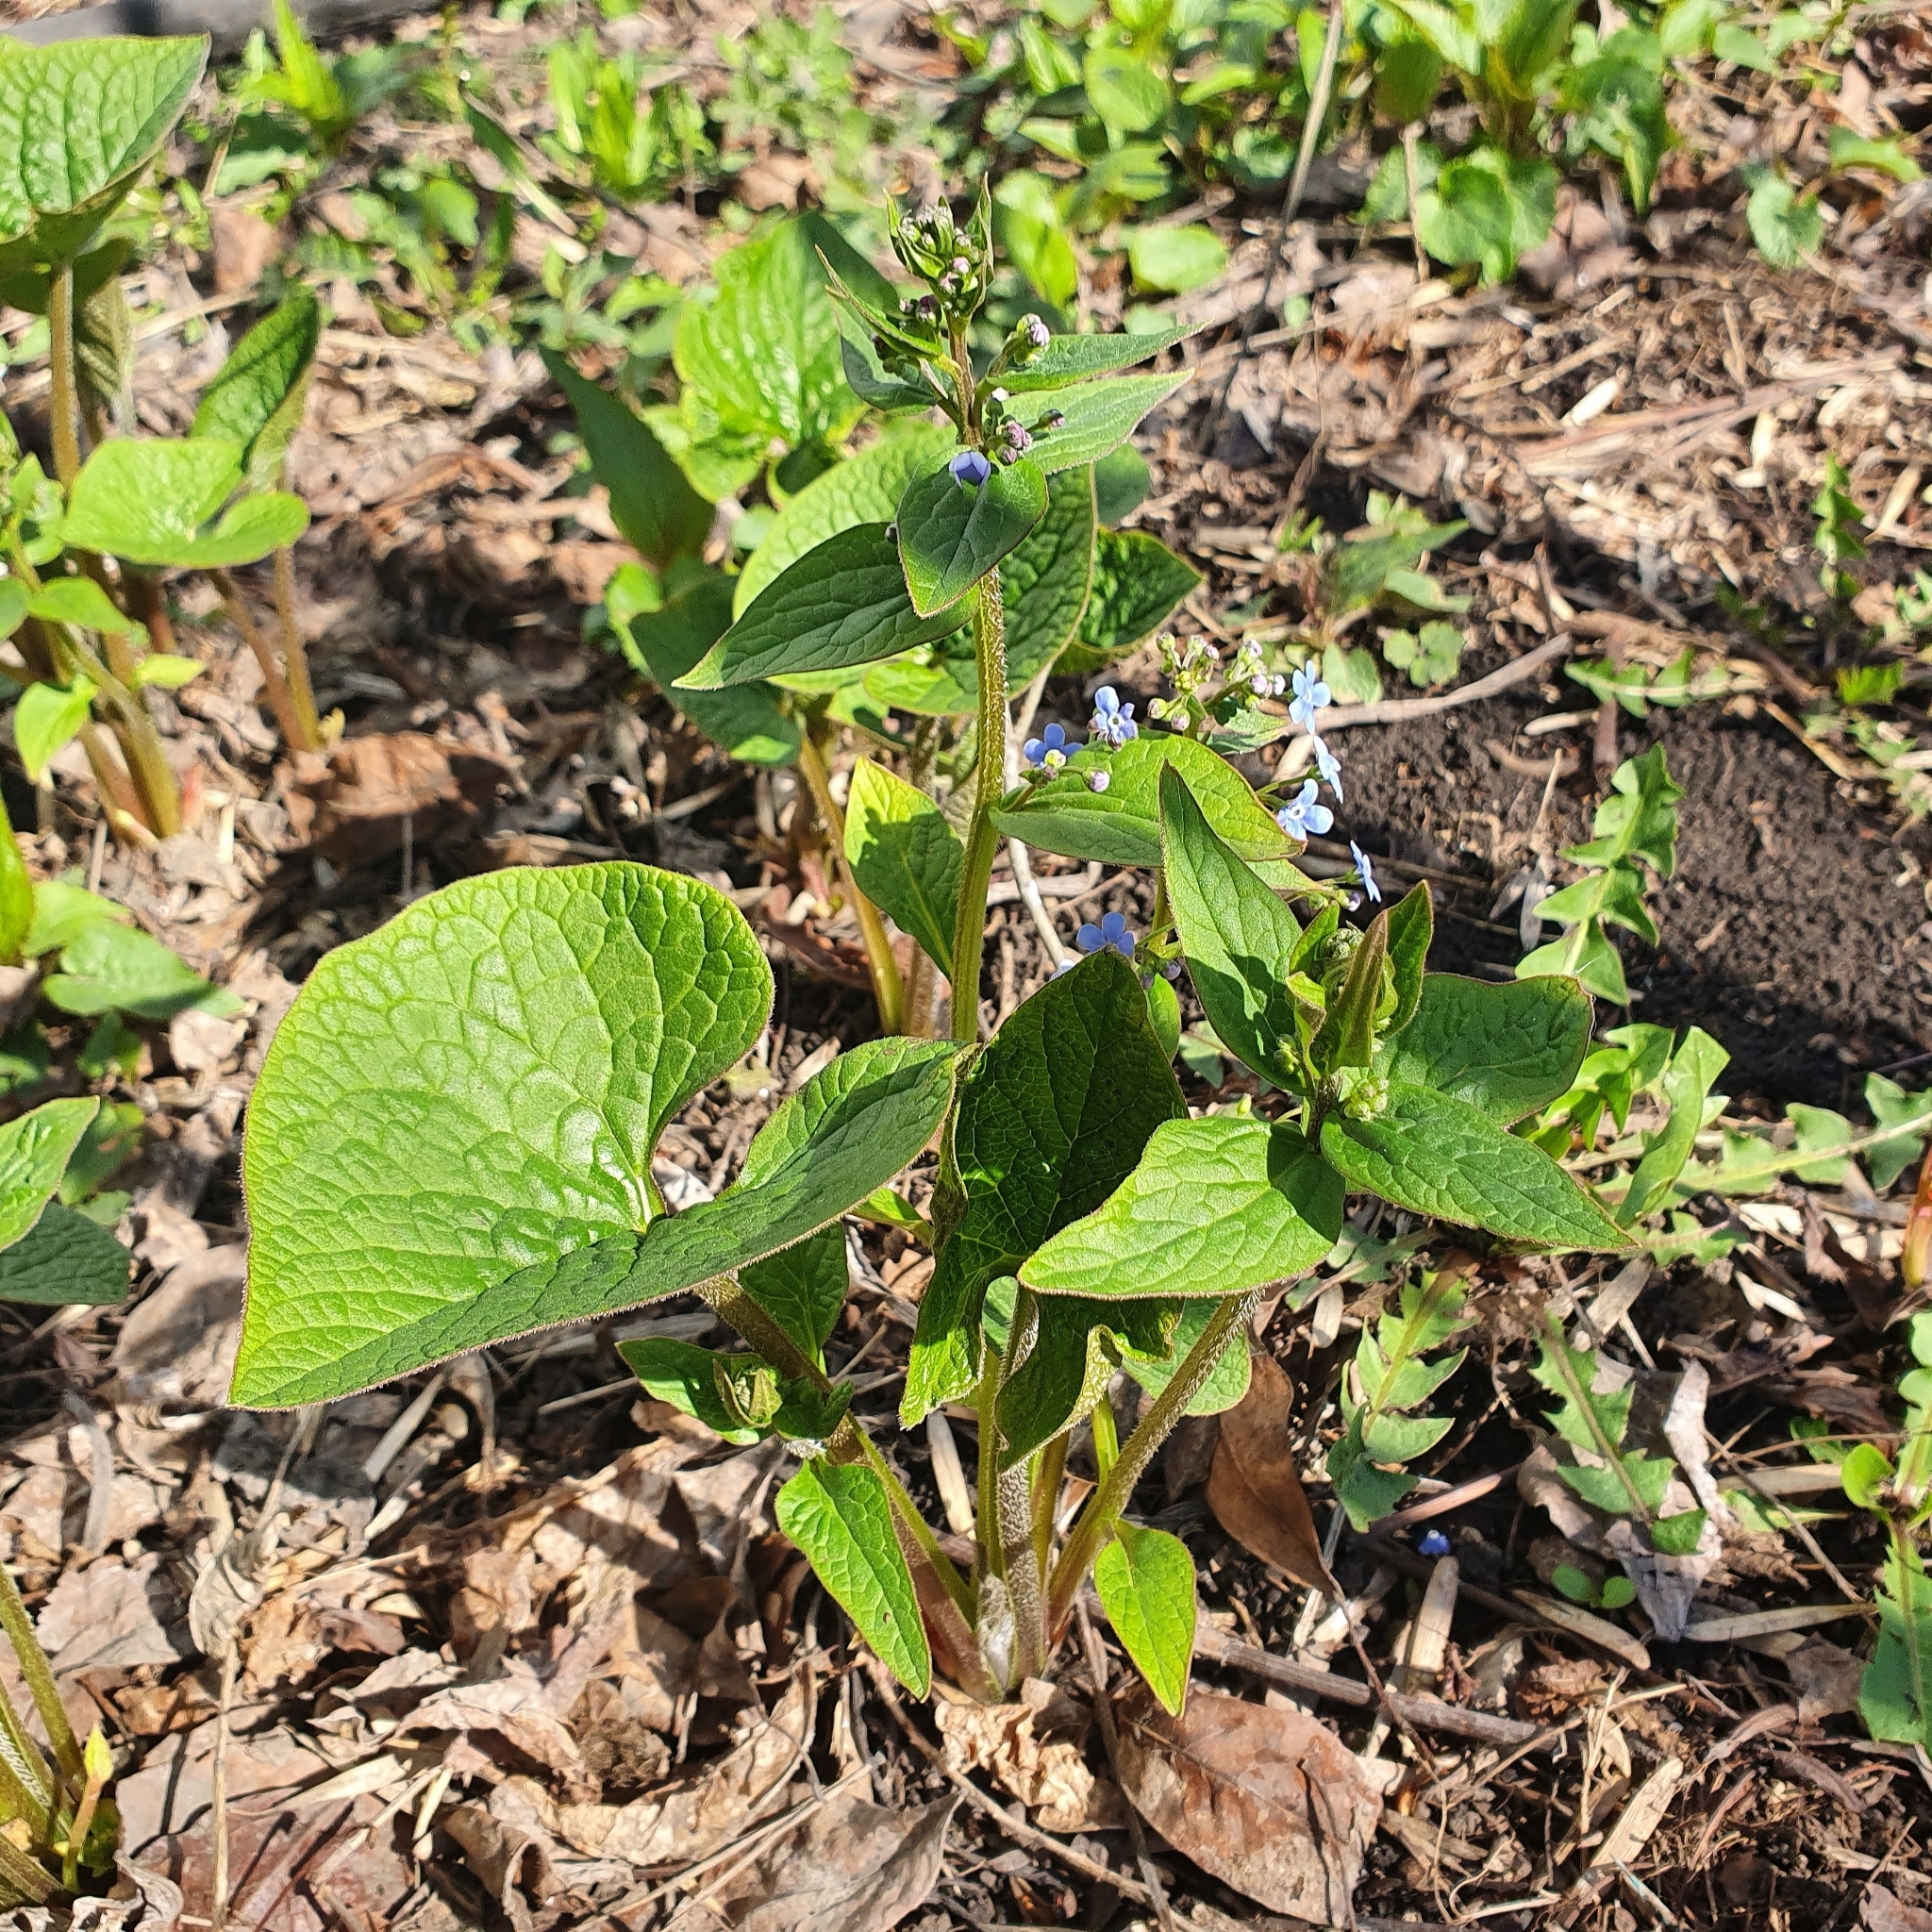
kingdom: Plantae
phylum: Tracheophyta
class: Magnoliopsida
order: Boraginales
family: Boraginaceae
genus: Brunnera
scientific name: Brunnera sibirica
